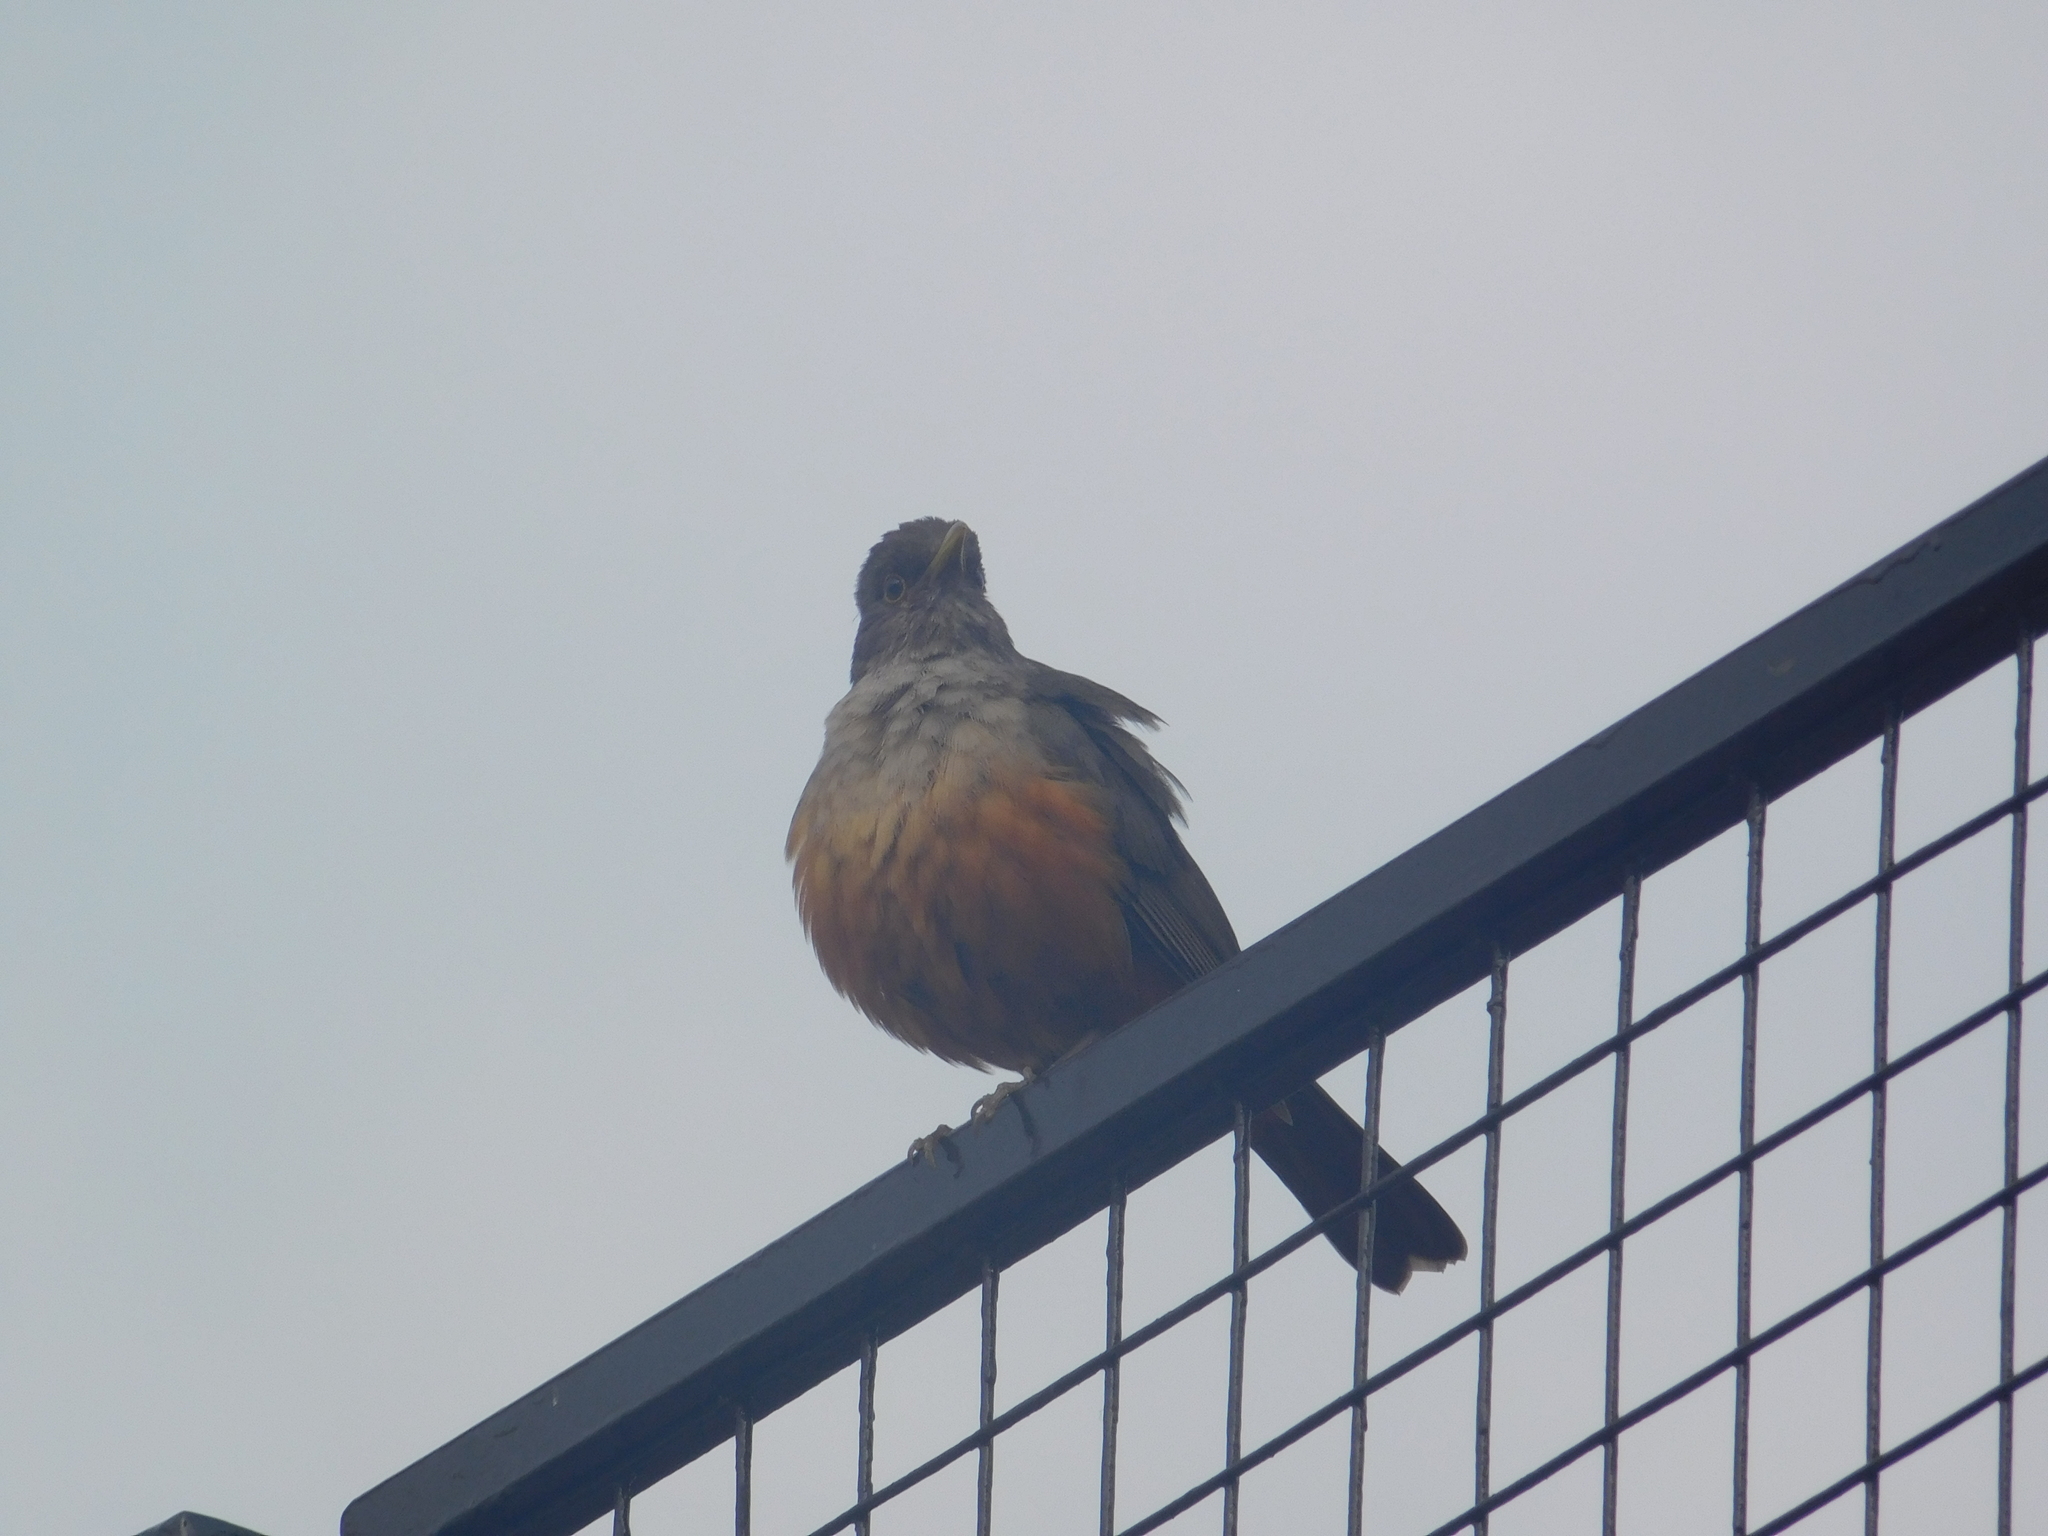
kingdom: Animalia
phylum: Chordata
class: Aves
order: Passeriformes
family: Turdidae
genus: Turdus
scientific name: Turdus rufiventris
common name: Rufous-bellied thrush
